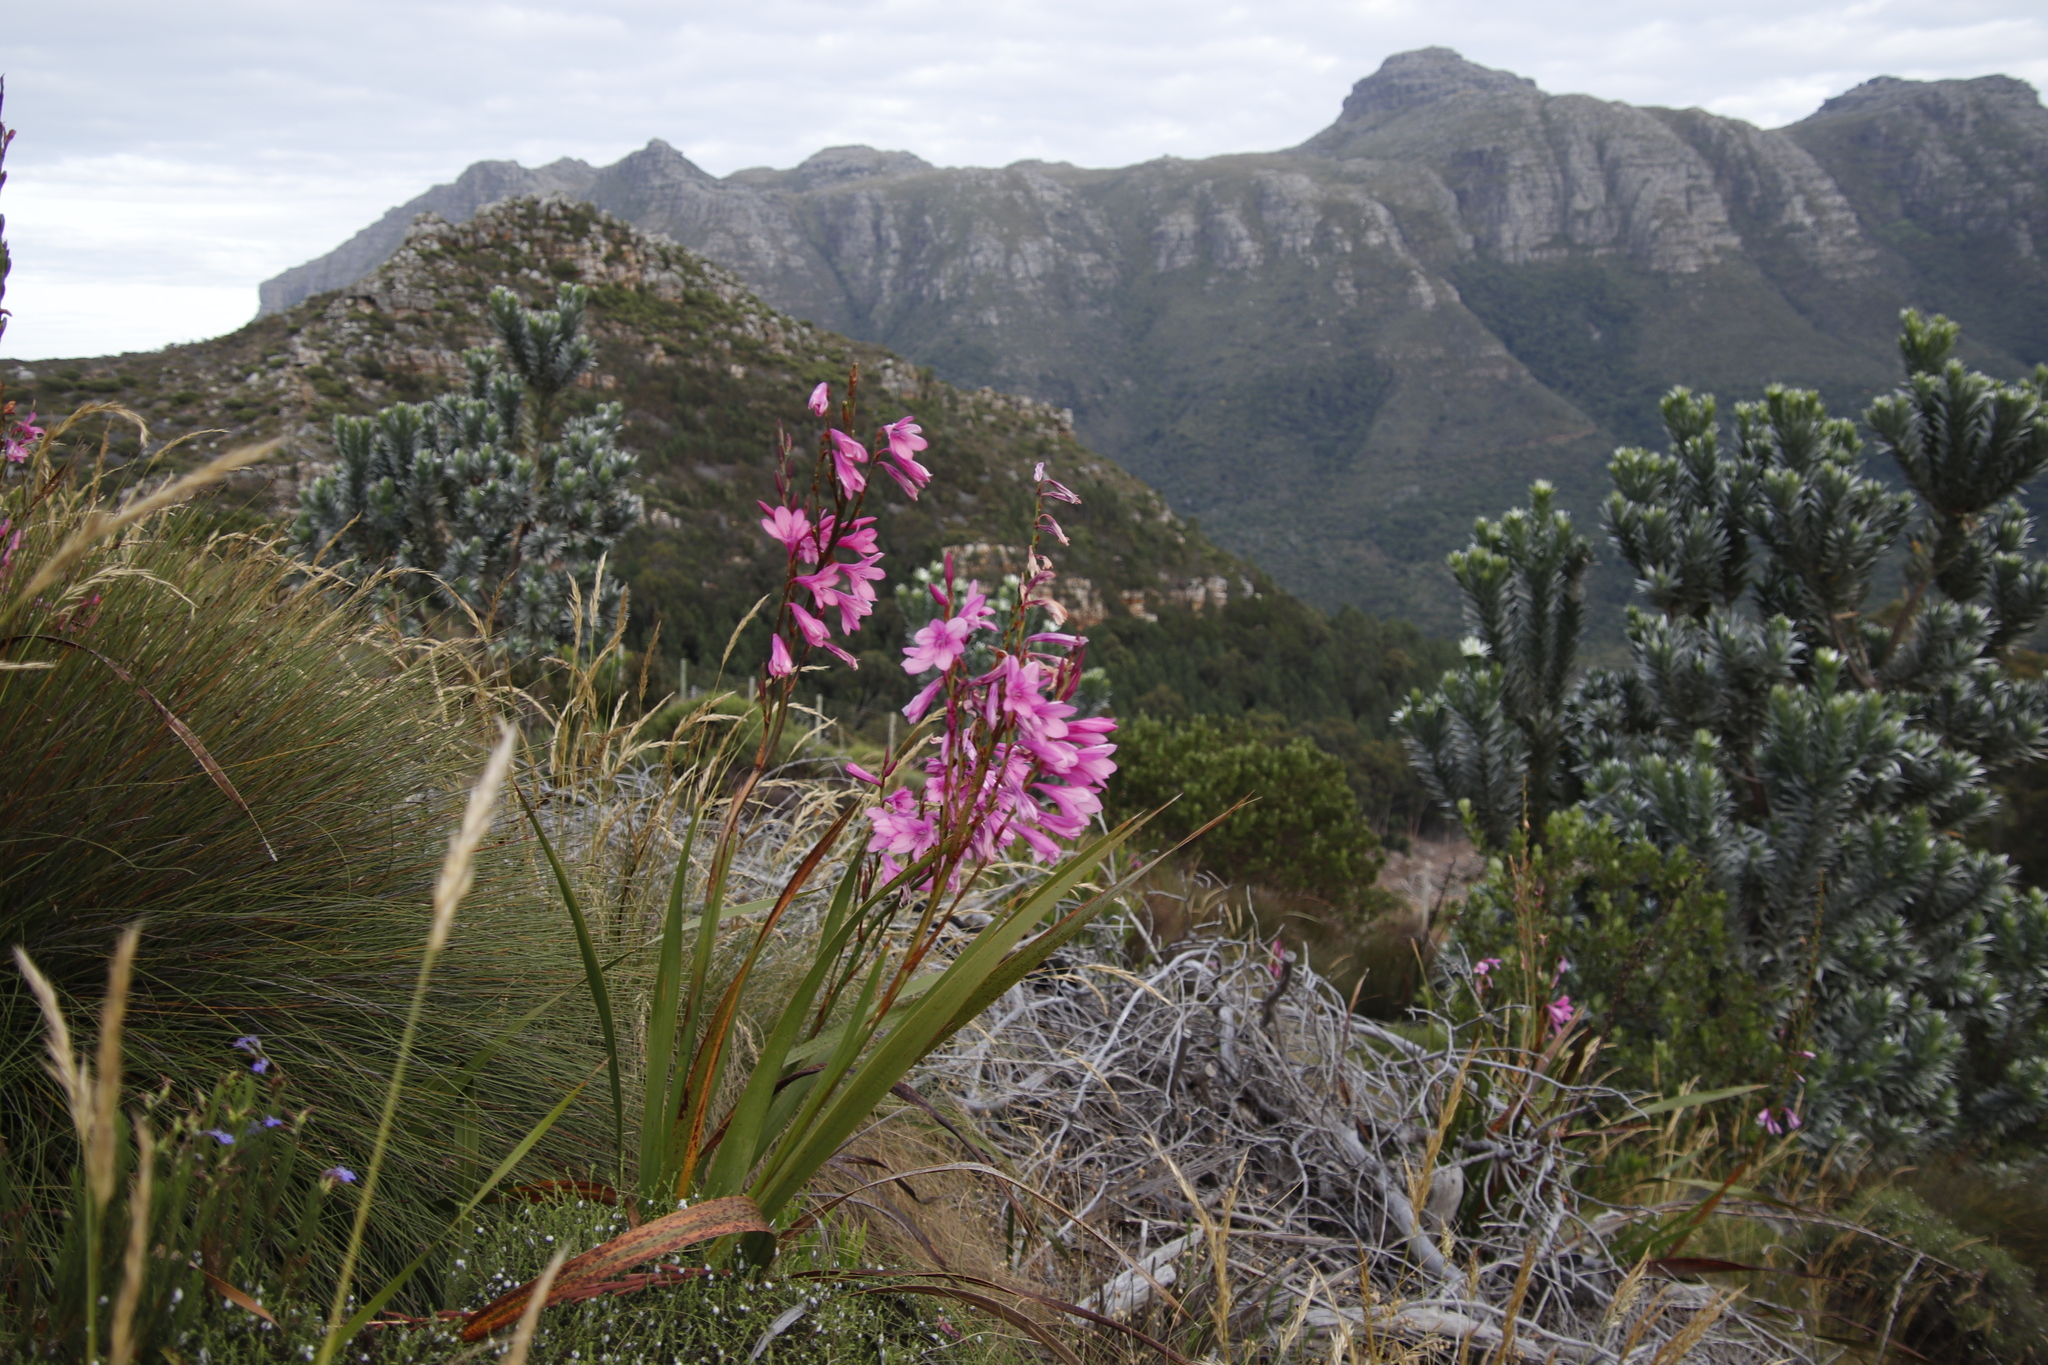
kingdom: Plantae
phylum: Tracheophyta
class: Liliopsida
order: Asparagales
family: Iridaceae
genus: Watsonia
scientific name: Watsonia borbonica
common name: Bugle-lily
